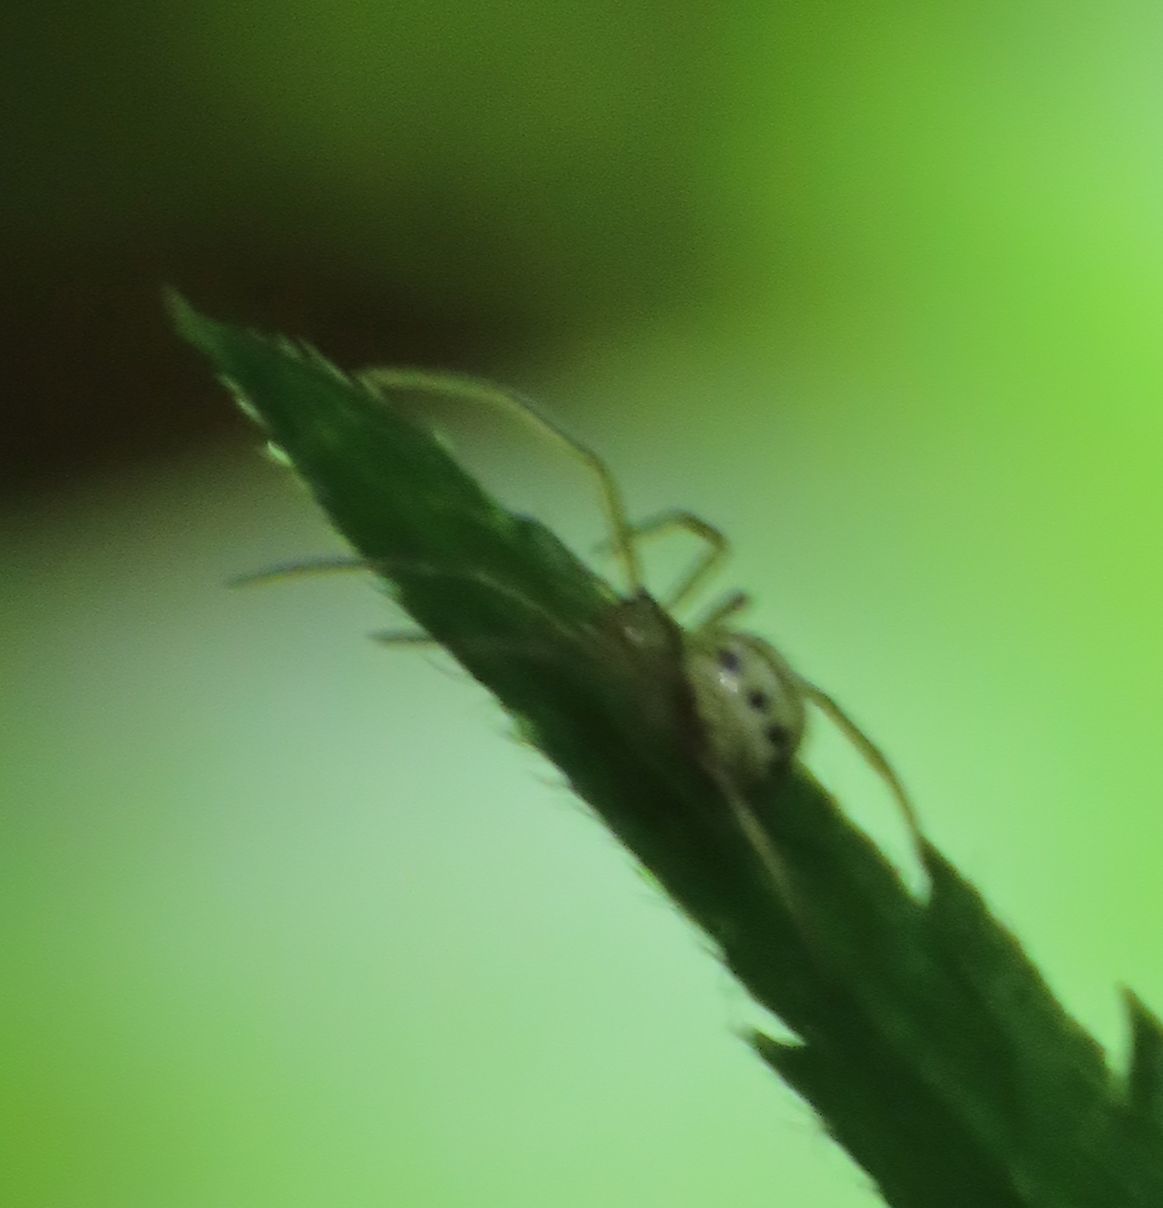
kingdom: Animalia
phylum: Arthropoda
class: Arachnida
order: Araneae
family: Theridiidae
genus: Enoplognatha
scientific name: Enoplognatha ovata
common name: Common candy-striped spider
